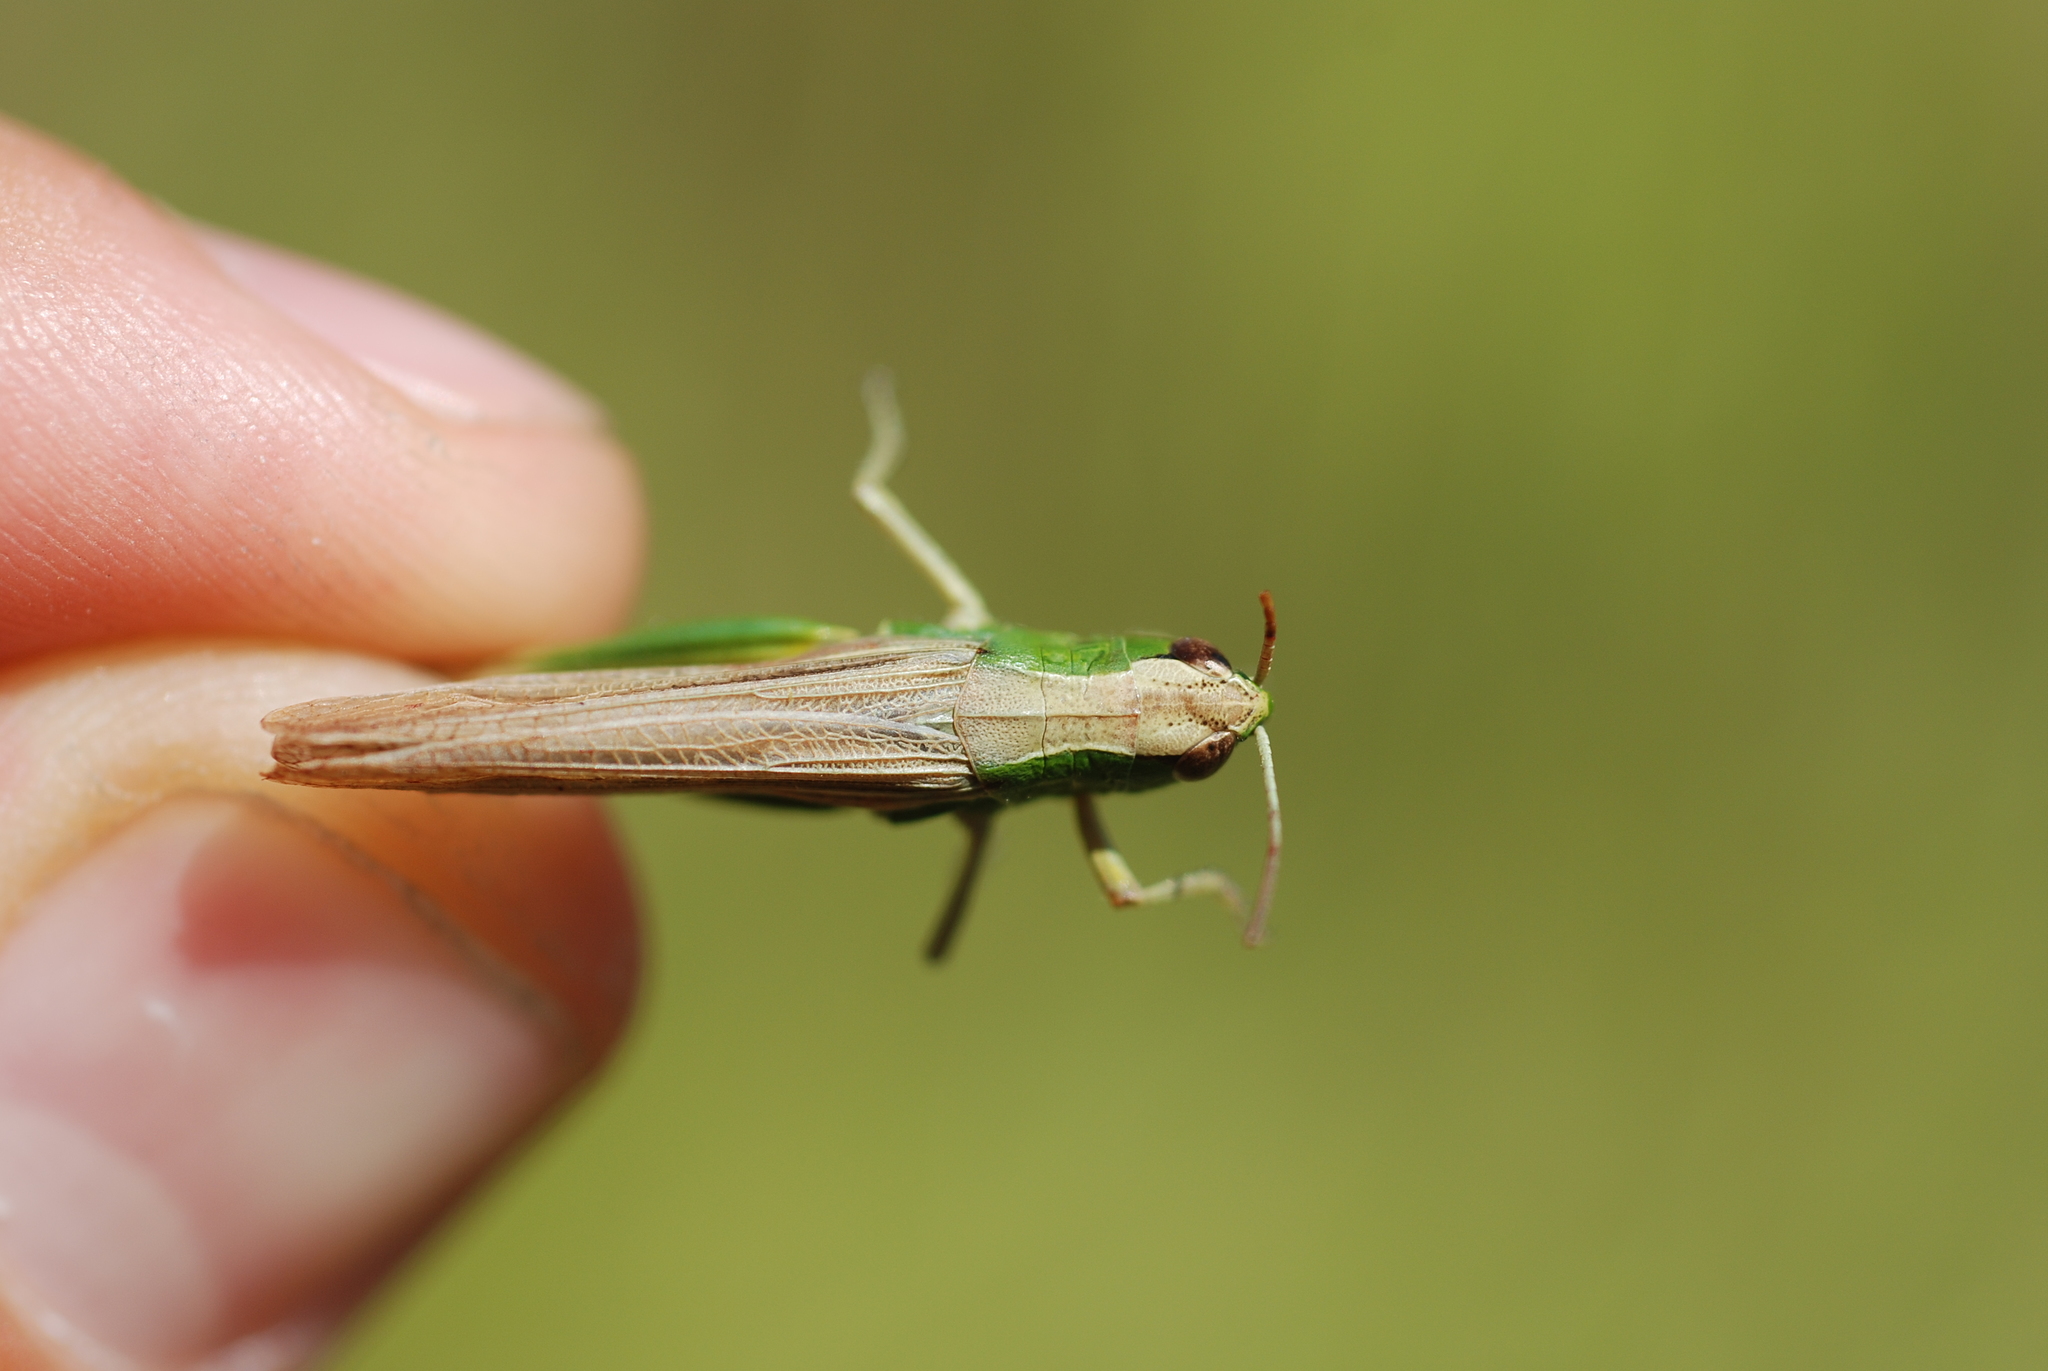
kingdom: Animalia
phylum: Arthropoda
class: Insecta
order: Orthoptera
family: Acrididae
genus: Pseudochorthippus
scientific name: Pseudochorthippus parallelus
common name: Meadow grasshopper
